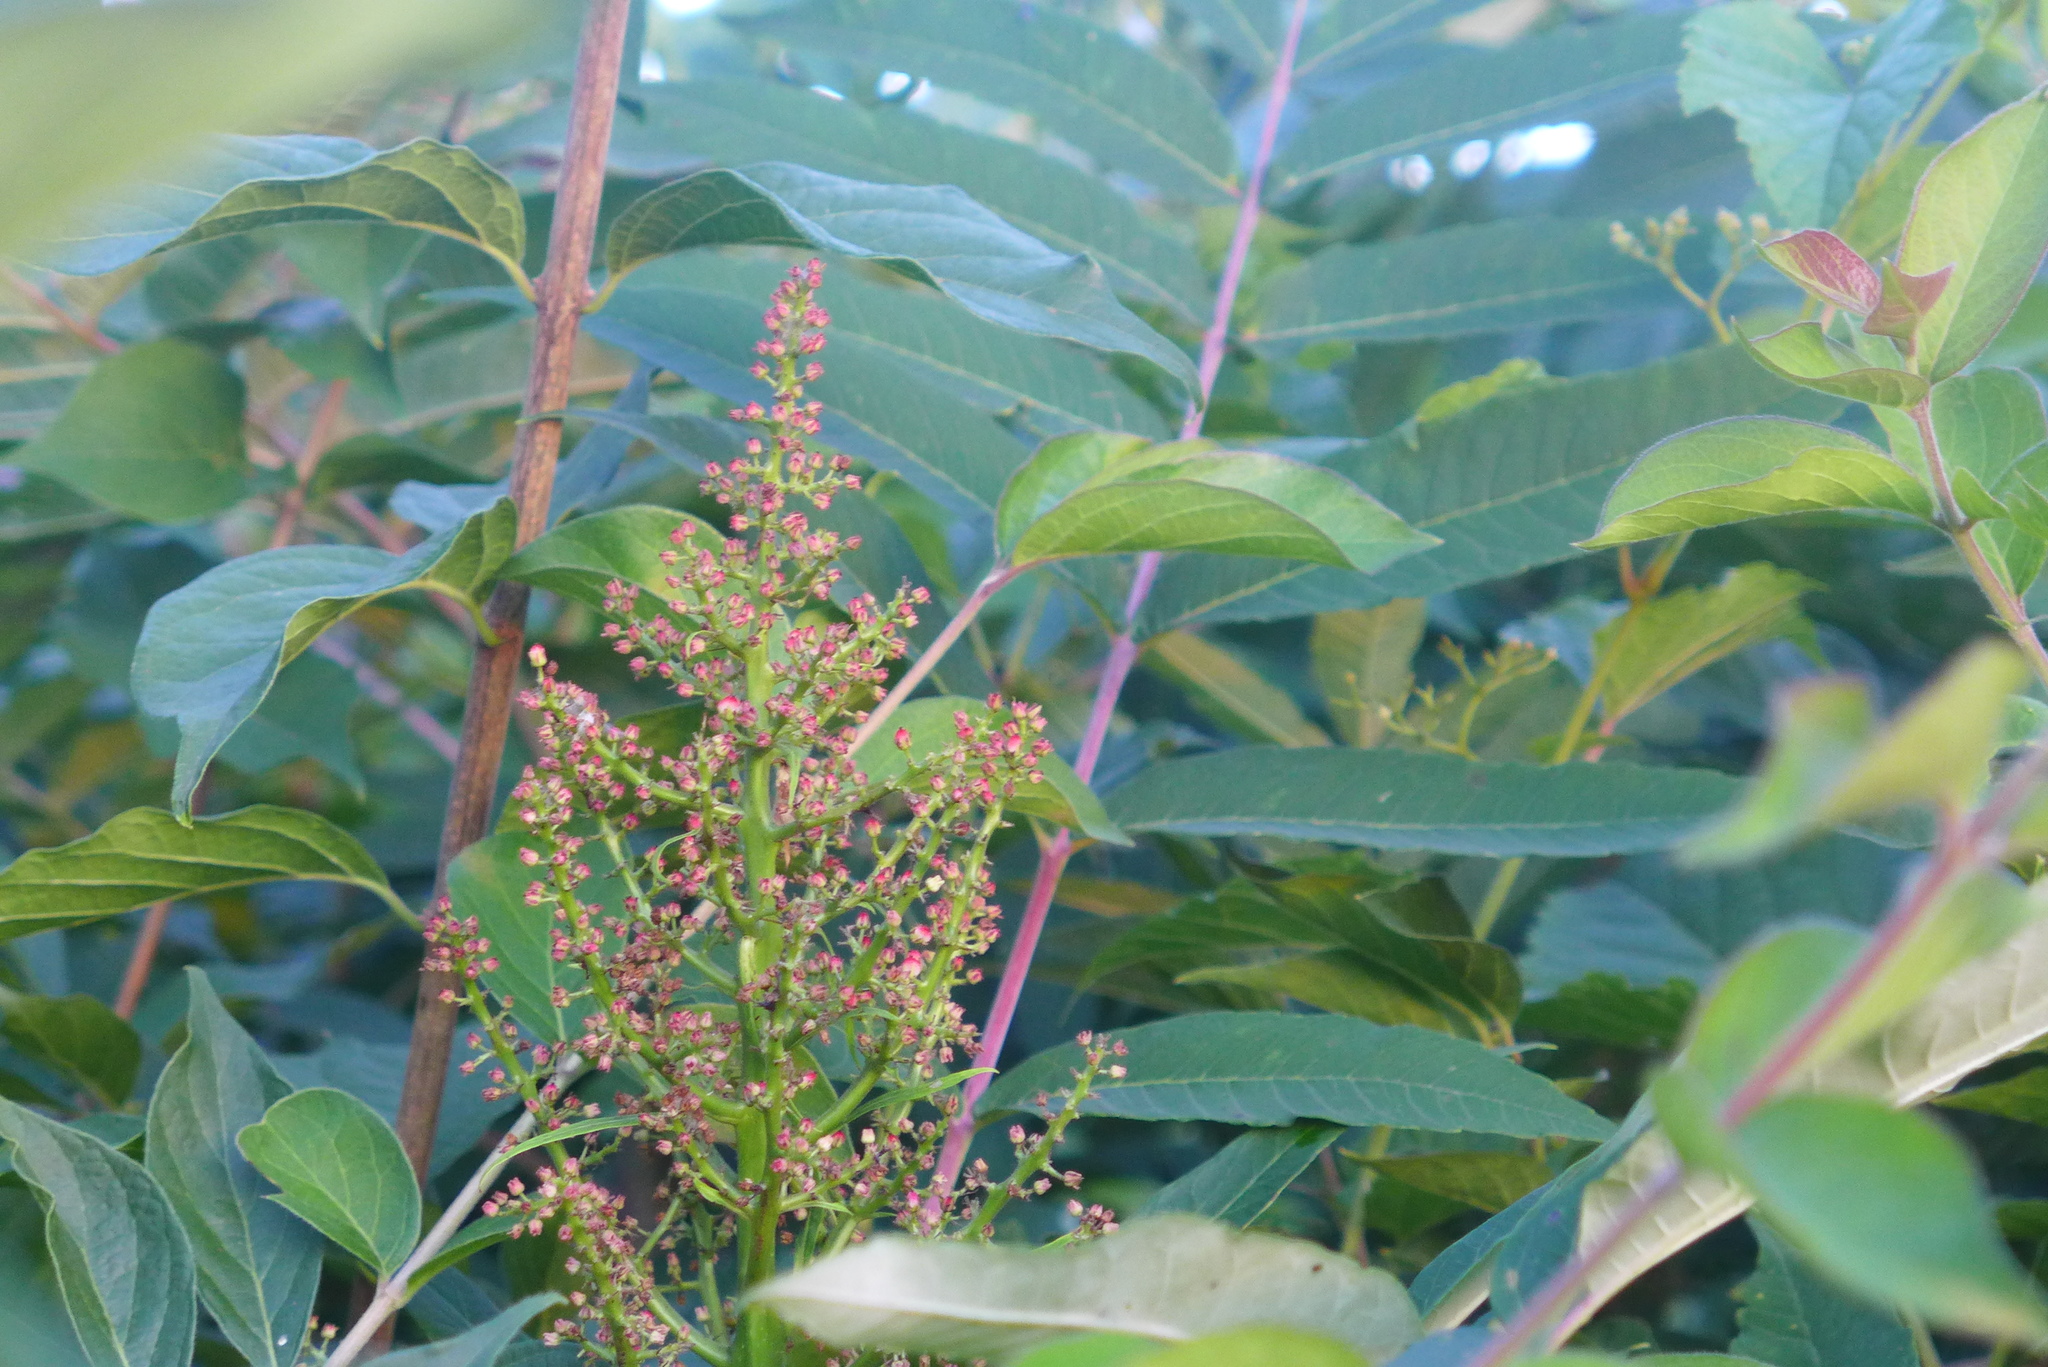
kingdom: Plantae
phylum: Tracheophyta
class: Magnoliopsida
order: Sapindales
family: Anacardiaceae
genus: Rhus
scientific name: Rhus glabra
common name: Scarlet sumac
